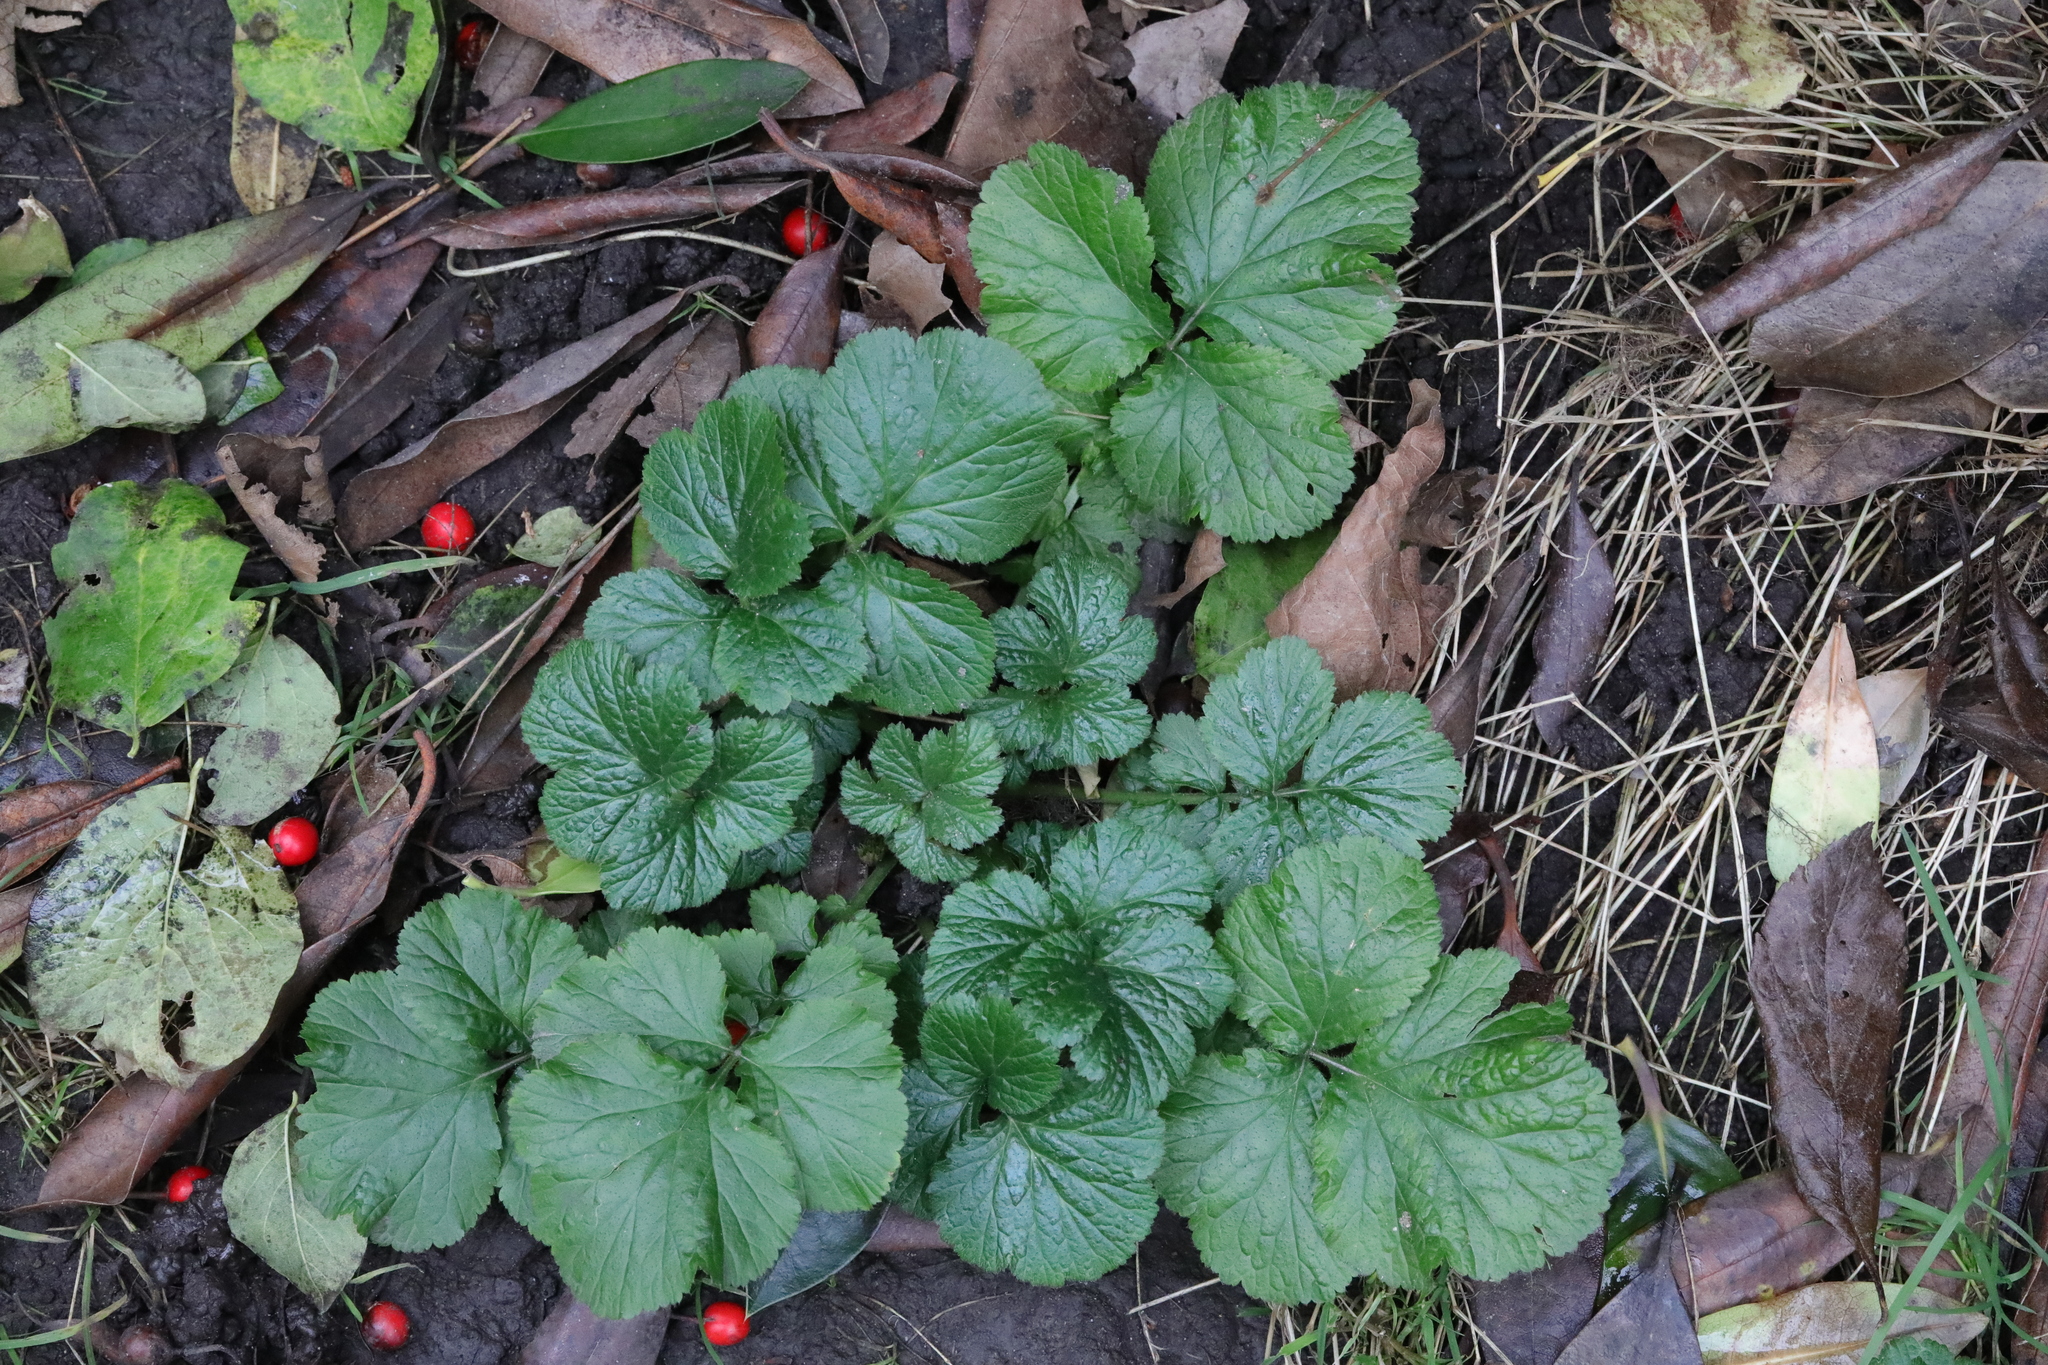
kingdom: Plantae
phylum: Tracheophyta
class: Magnoliopsida
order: Rosales
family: Rosaceae
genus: Geum
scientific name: Geum urbanum
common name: Wood avens
